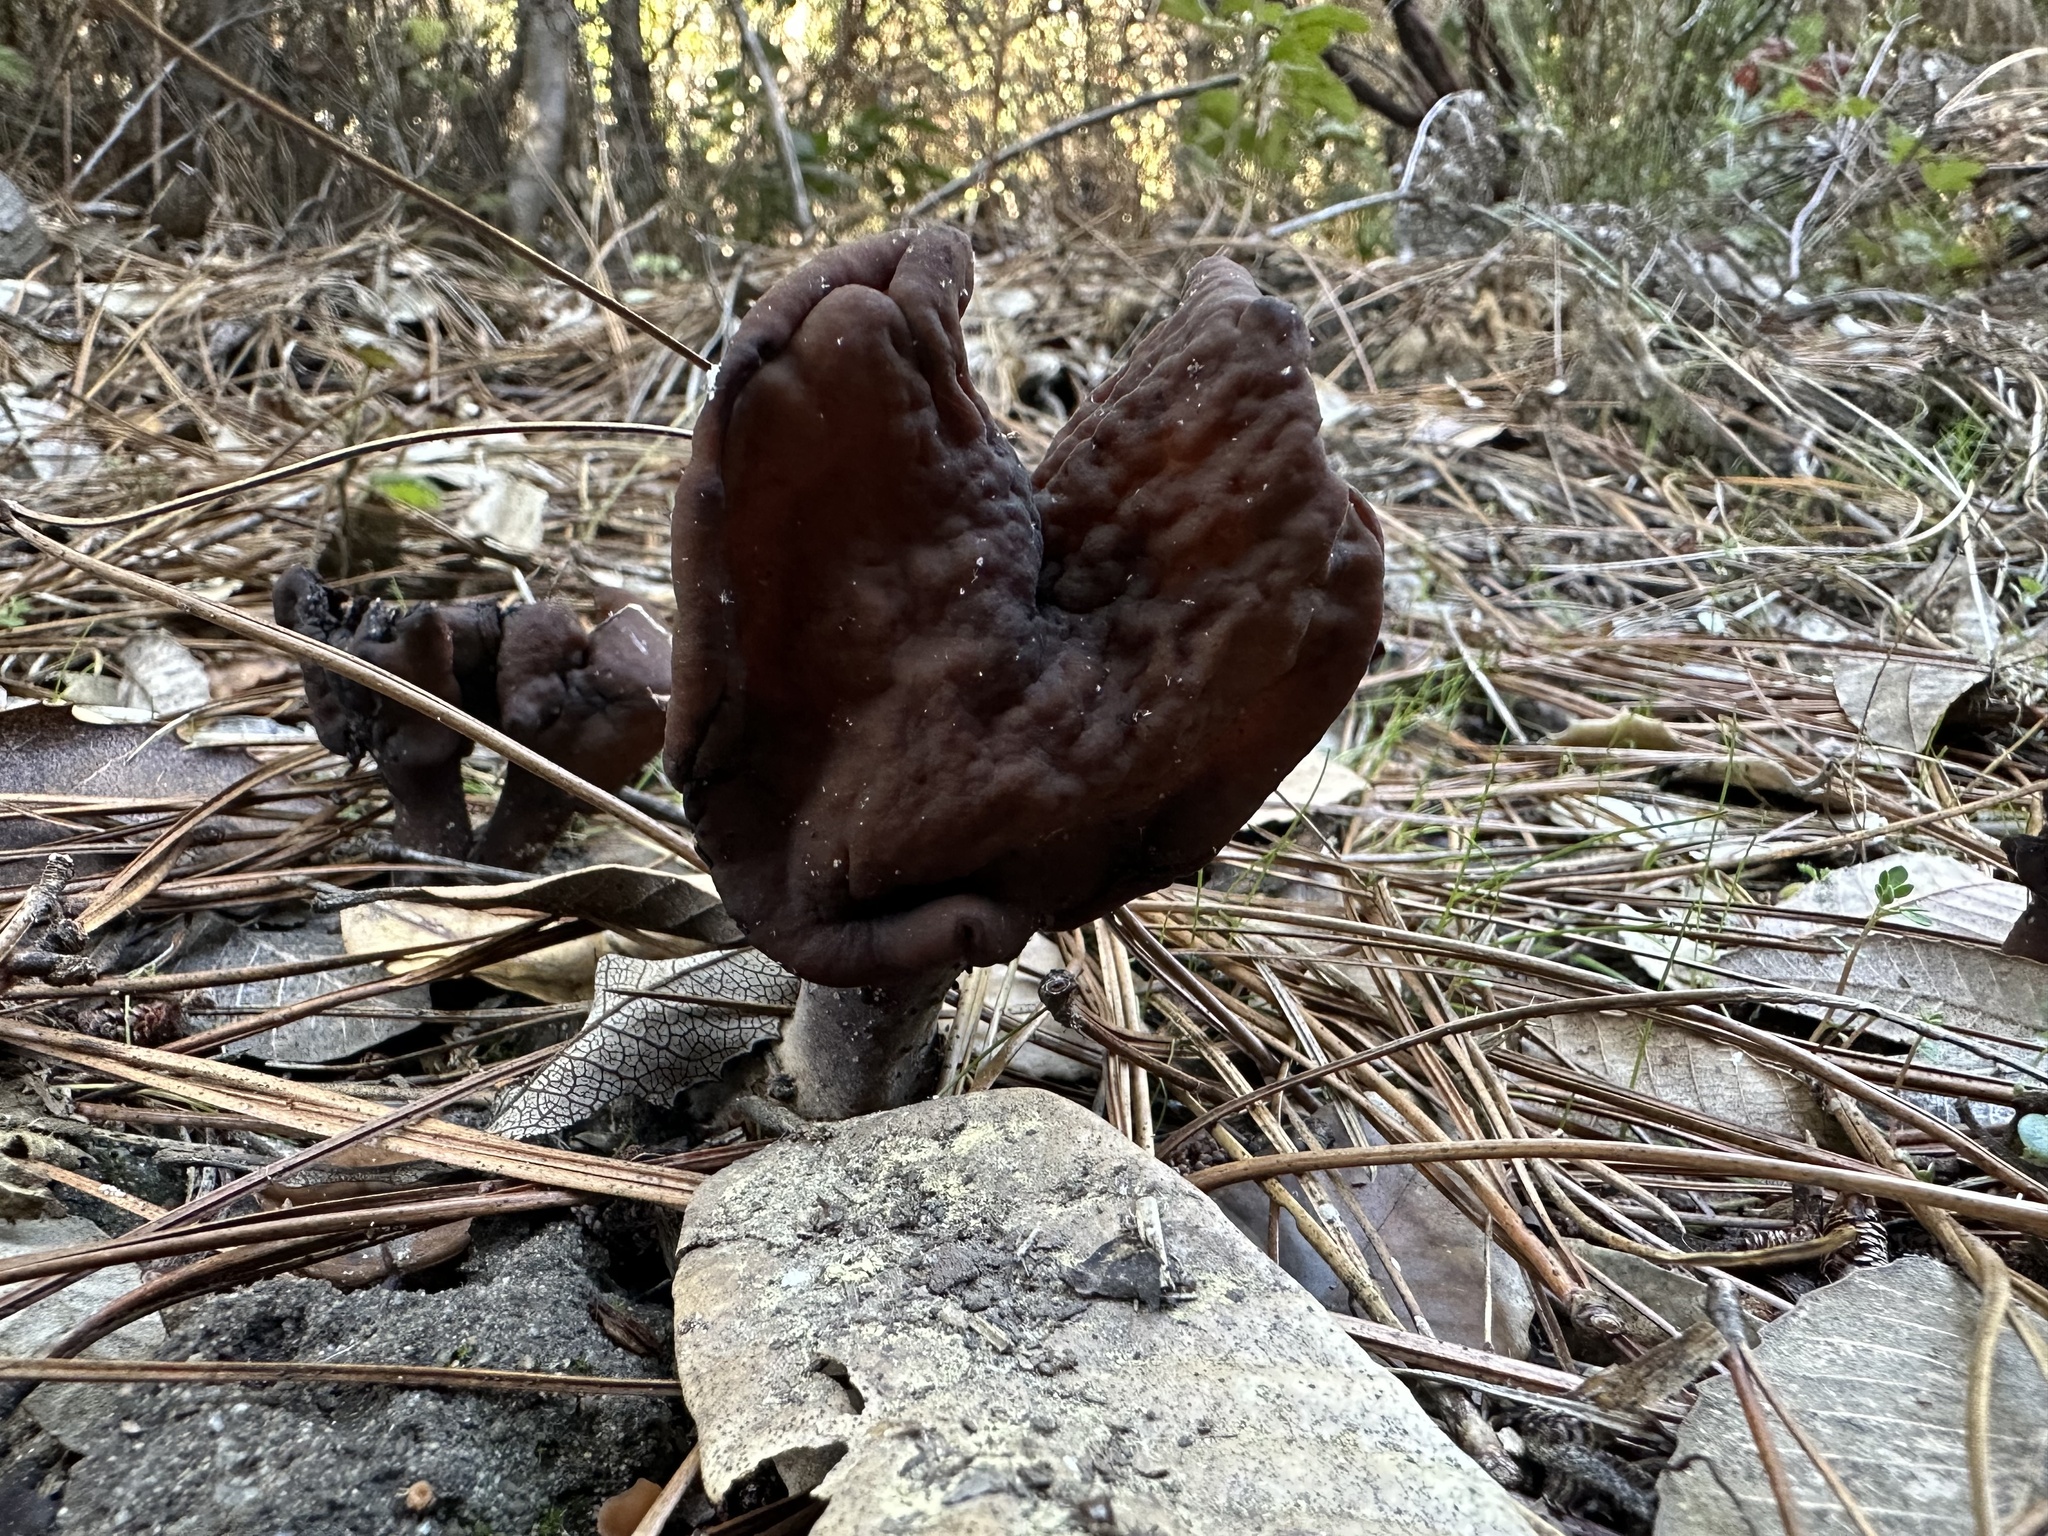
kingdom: Fungi
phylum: Ascomycota
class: Pezizomycetes
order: Pezizales
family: Discinaceae
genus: Gyromitra
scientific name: Gyromitra infula
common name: Pouched false morel
